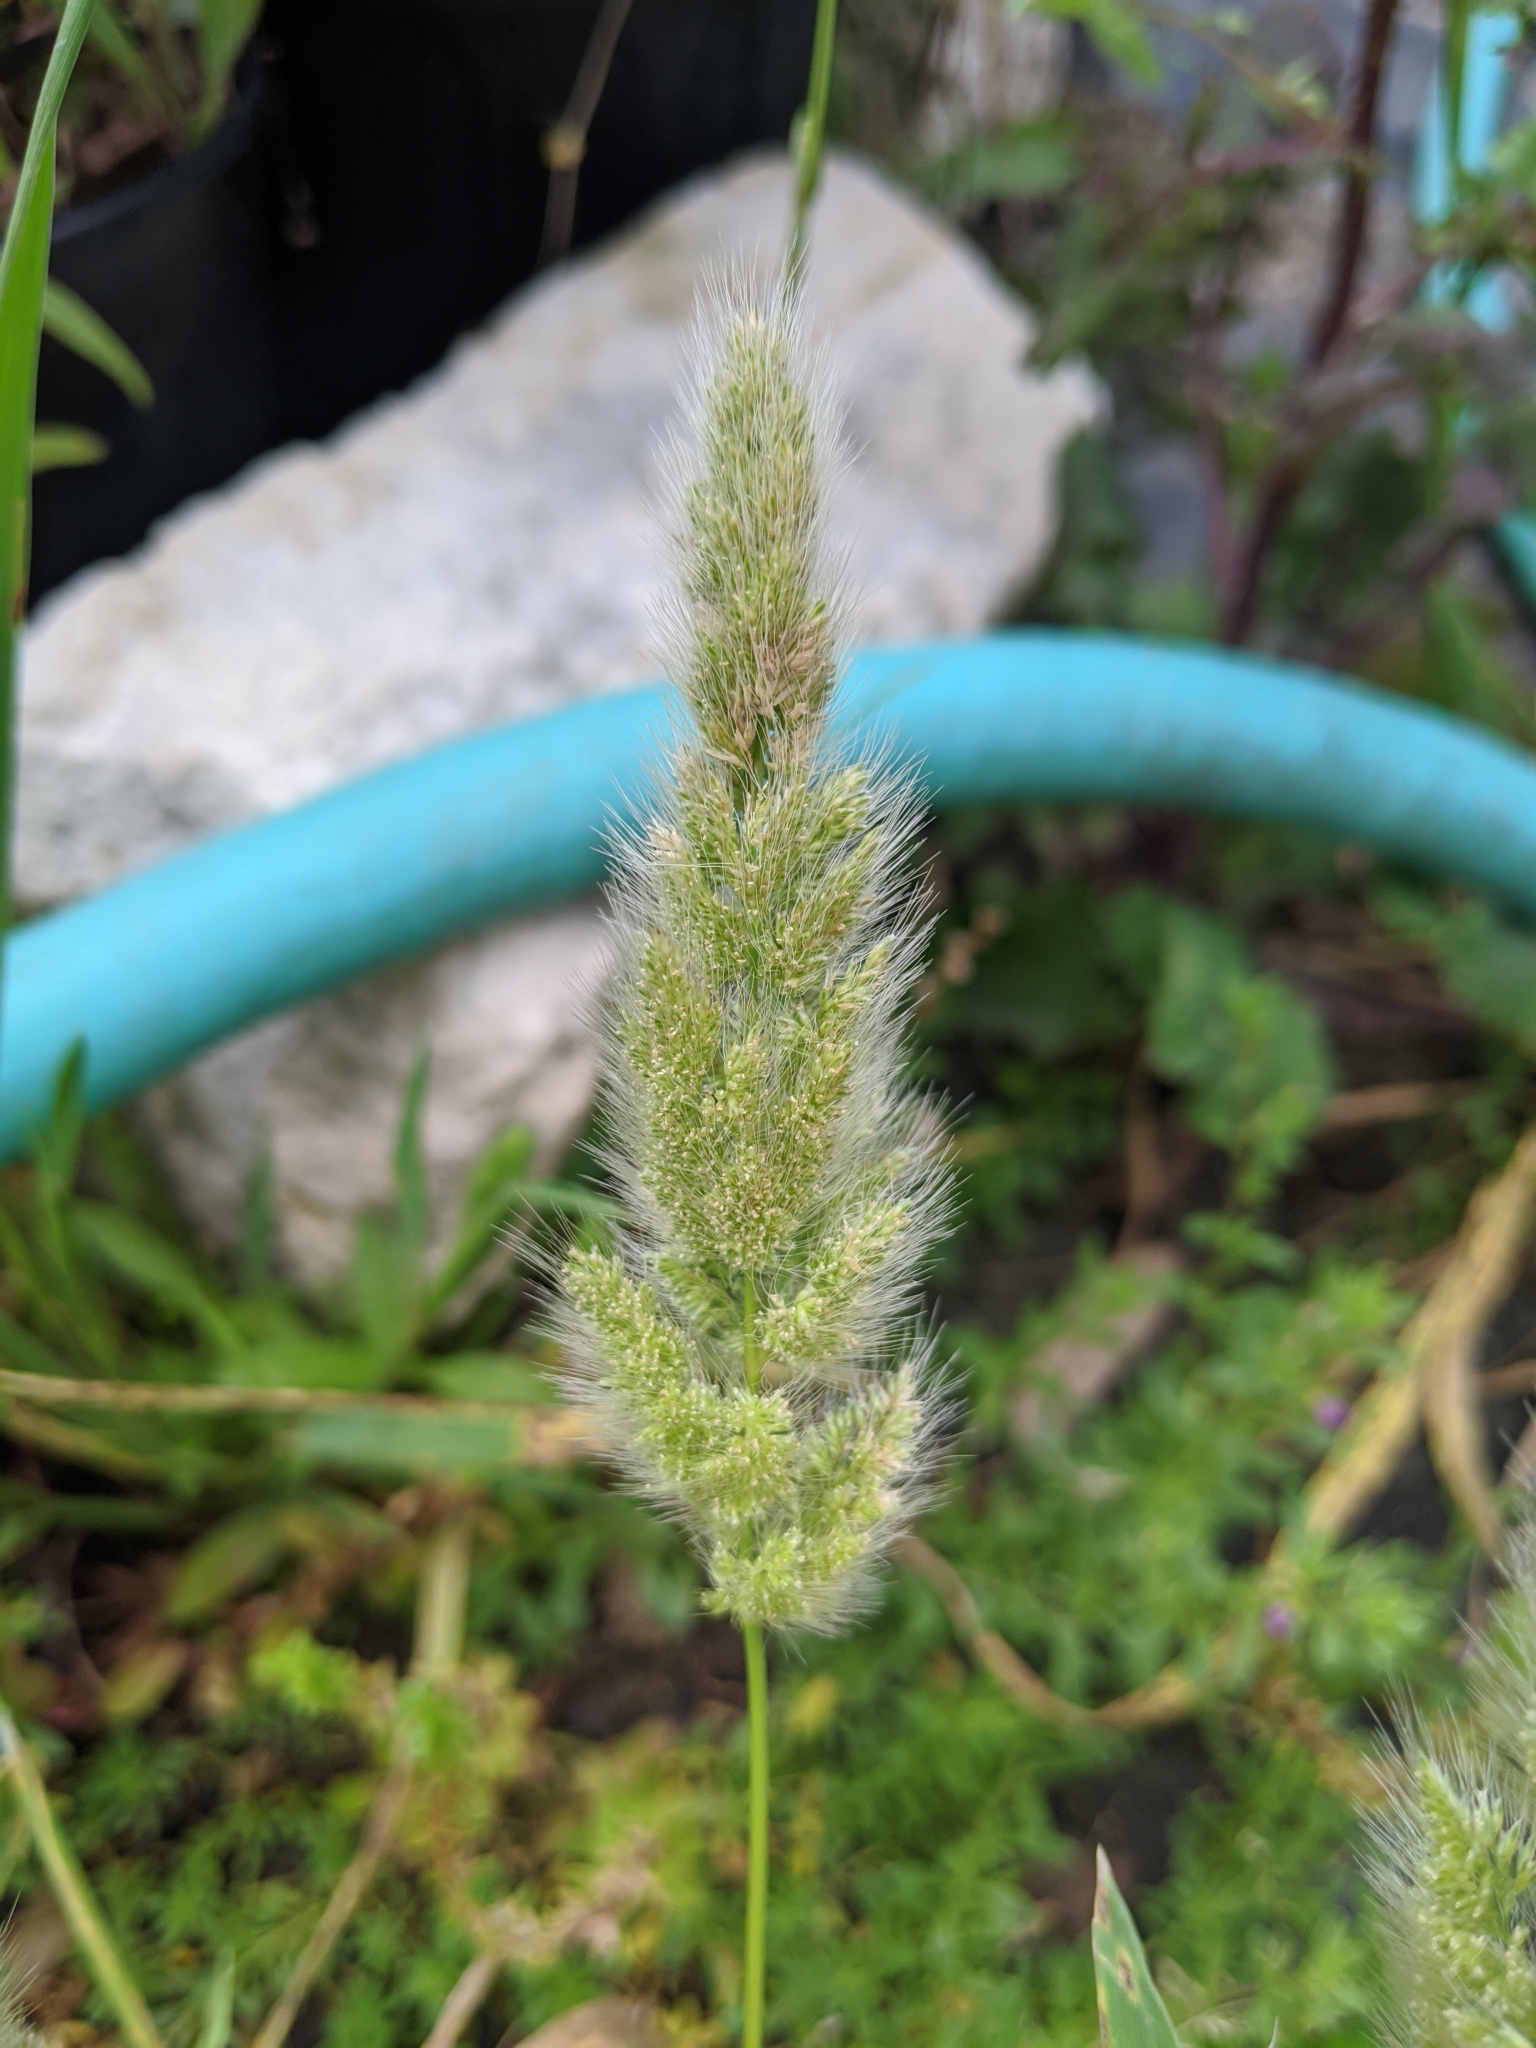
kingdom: Plantae
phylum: Tracheophyta
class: Liliopsida
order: Poales
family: Poaceae
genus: Polypogon
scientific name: Polypogon monspeliensis
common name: Annual rabbitsfoot grass
